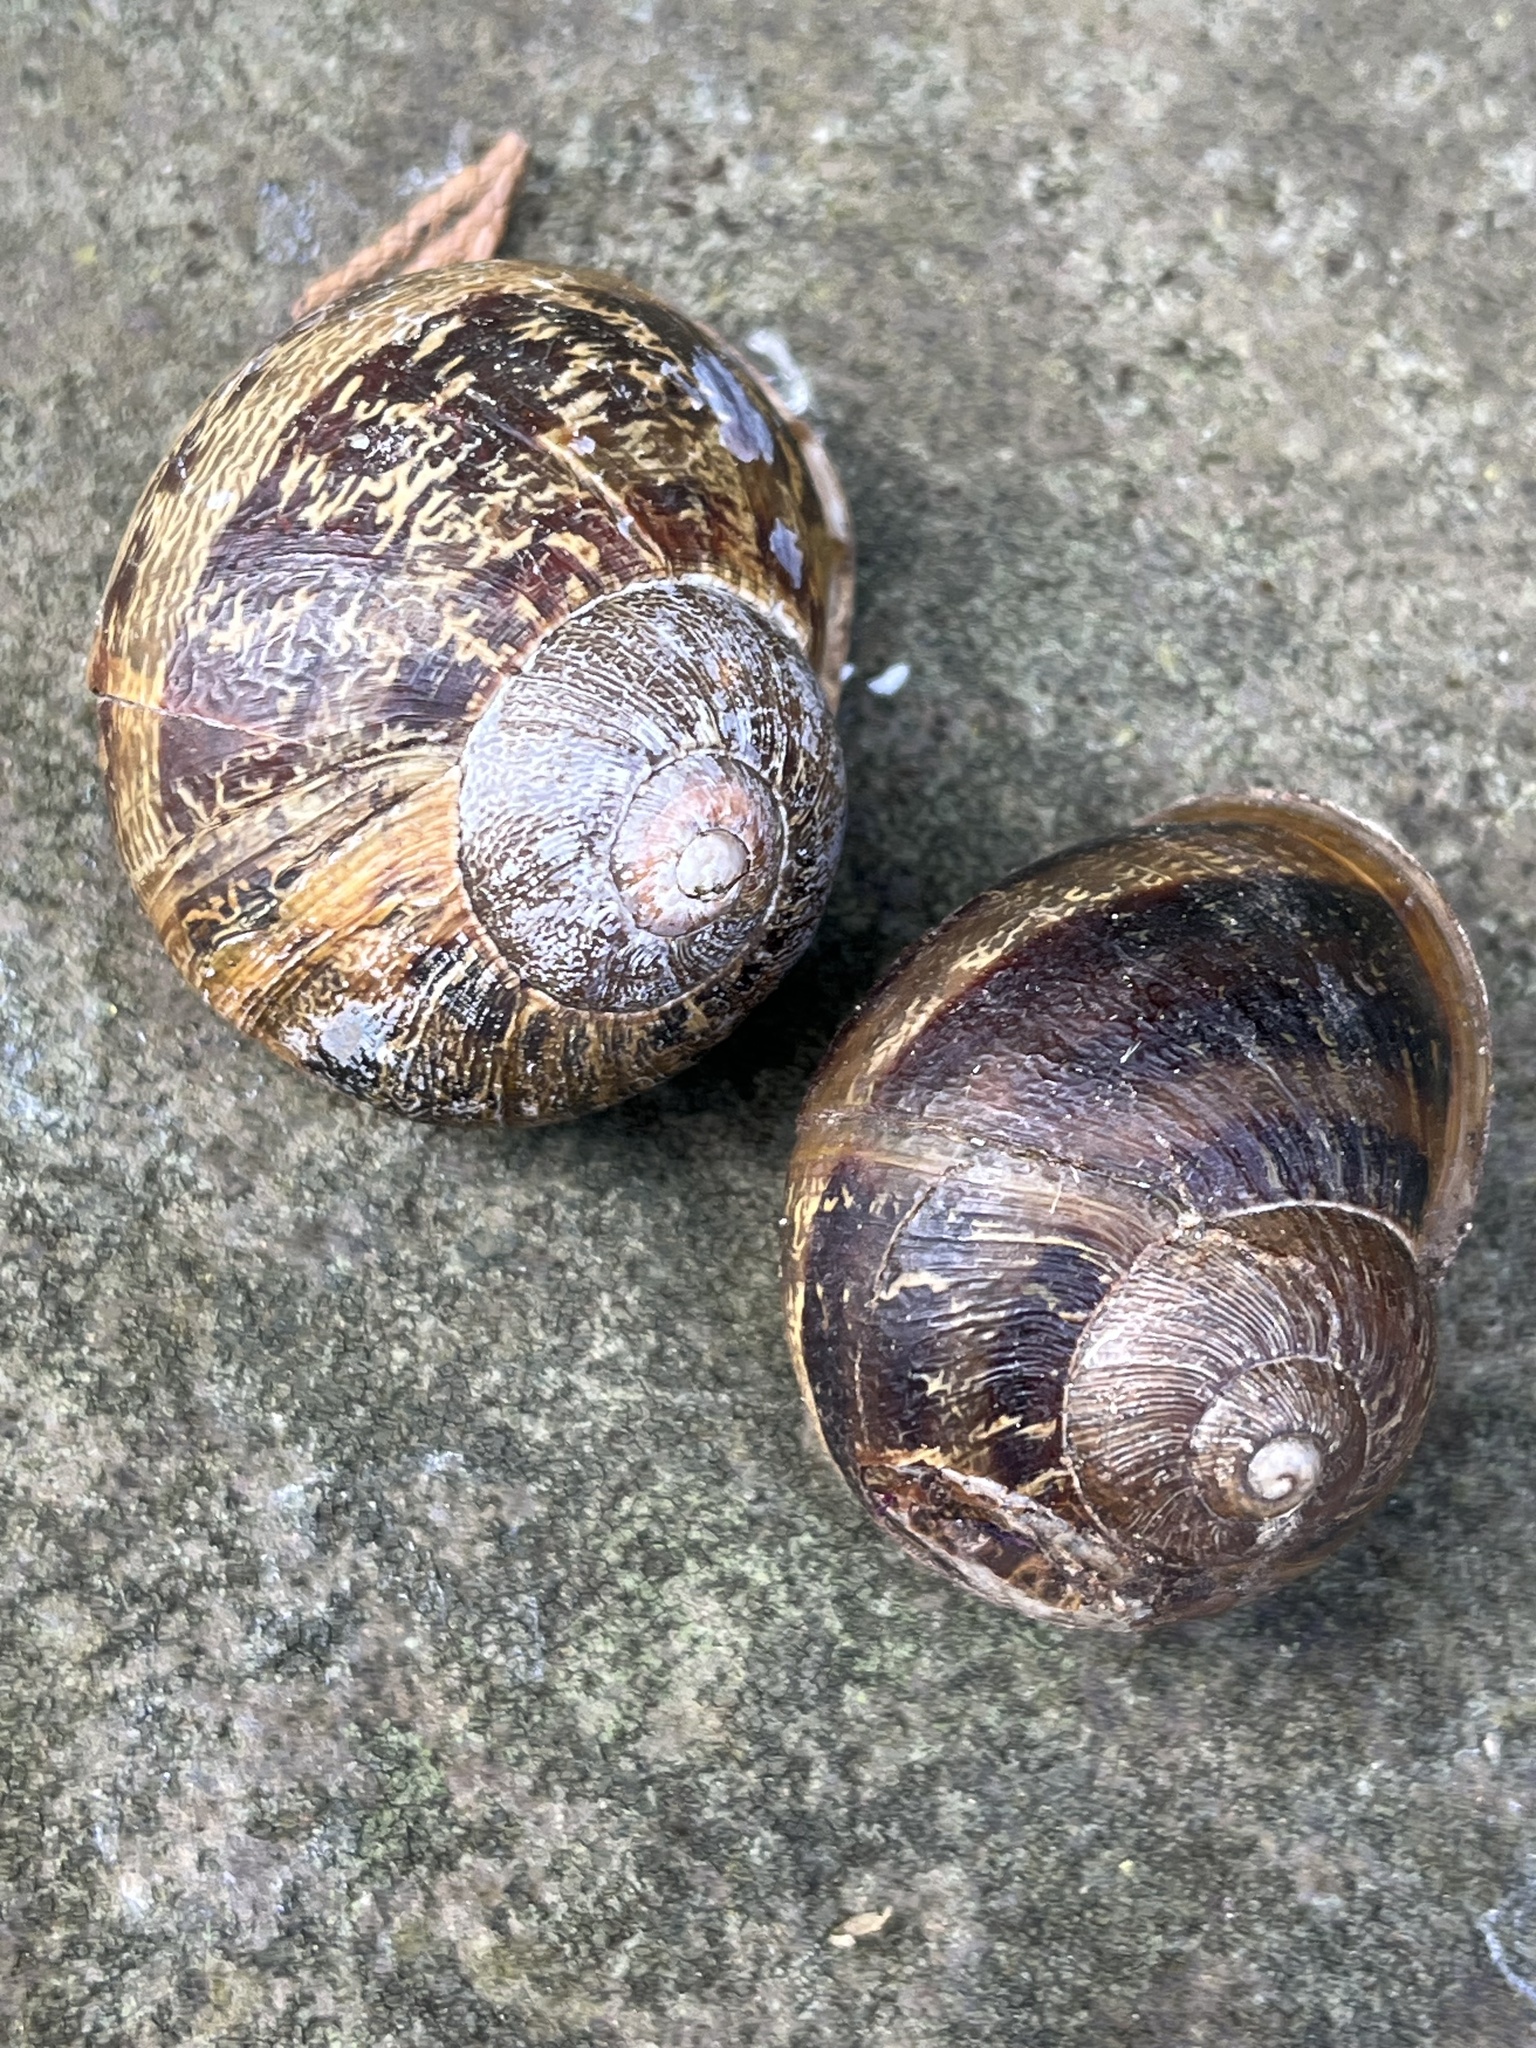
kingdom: Animalia
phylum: Mollusca
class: Gastropoda
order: Stylommatophora
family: Helicidae
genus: Cornu
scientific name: Cornu aspersum
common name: Brown garden snail
